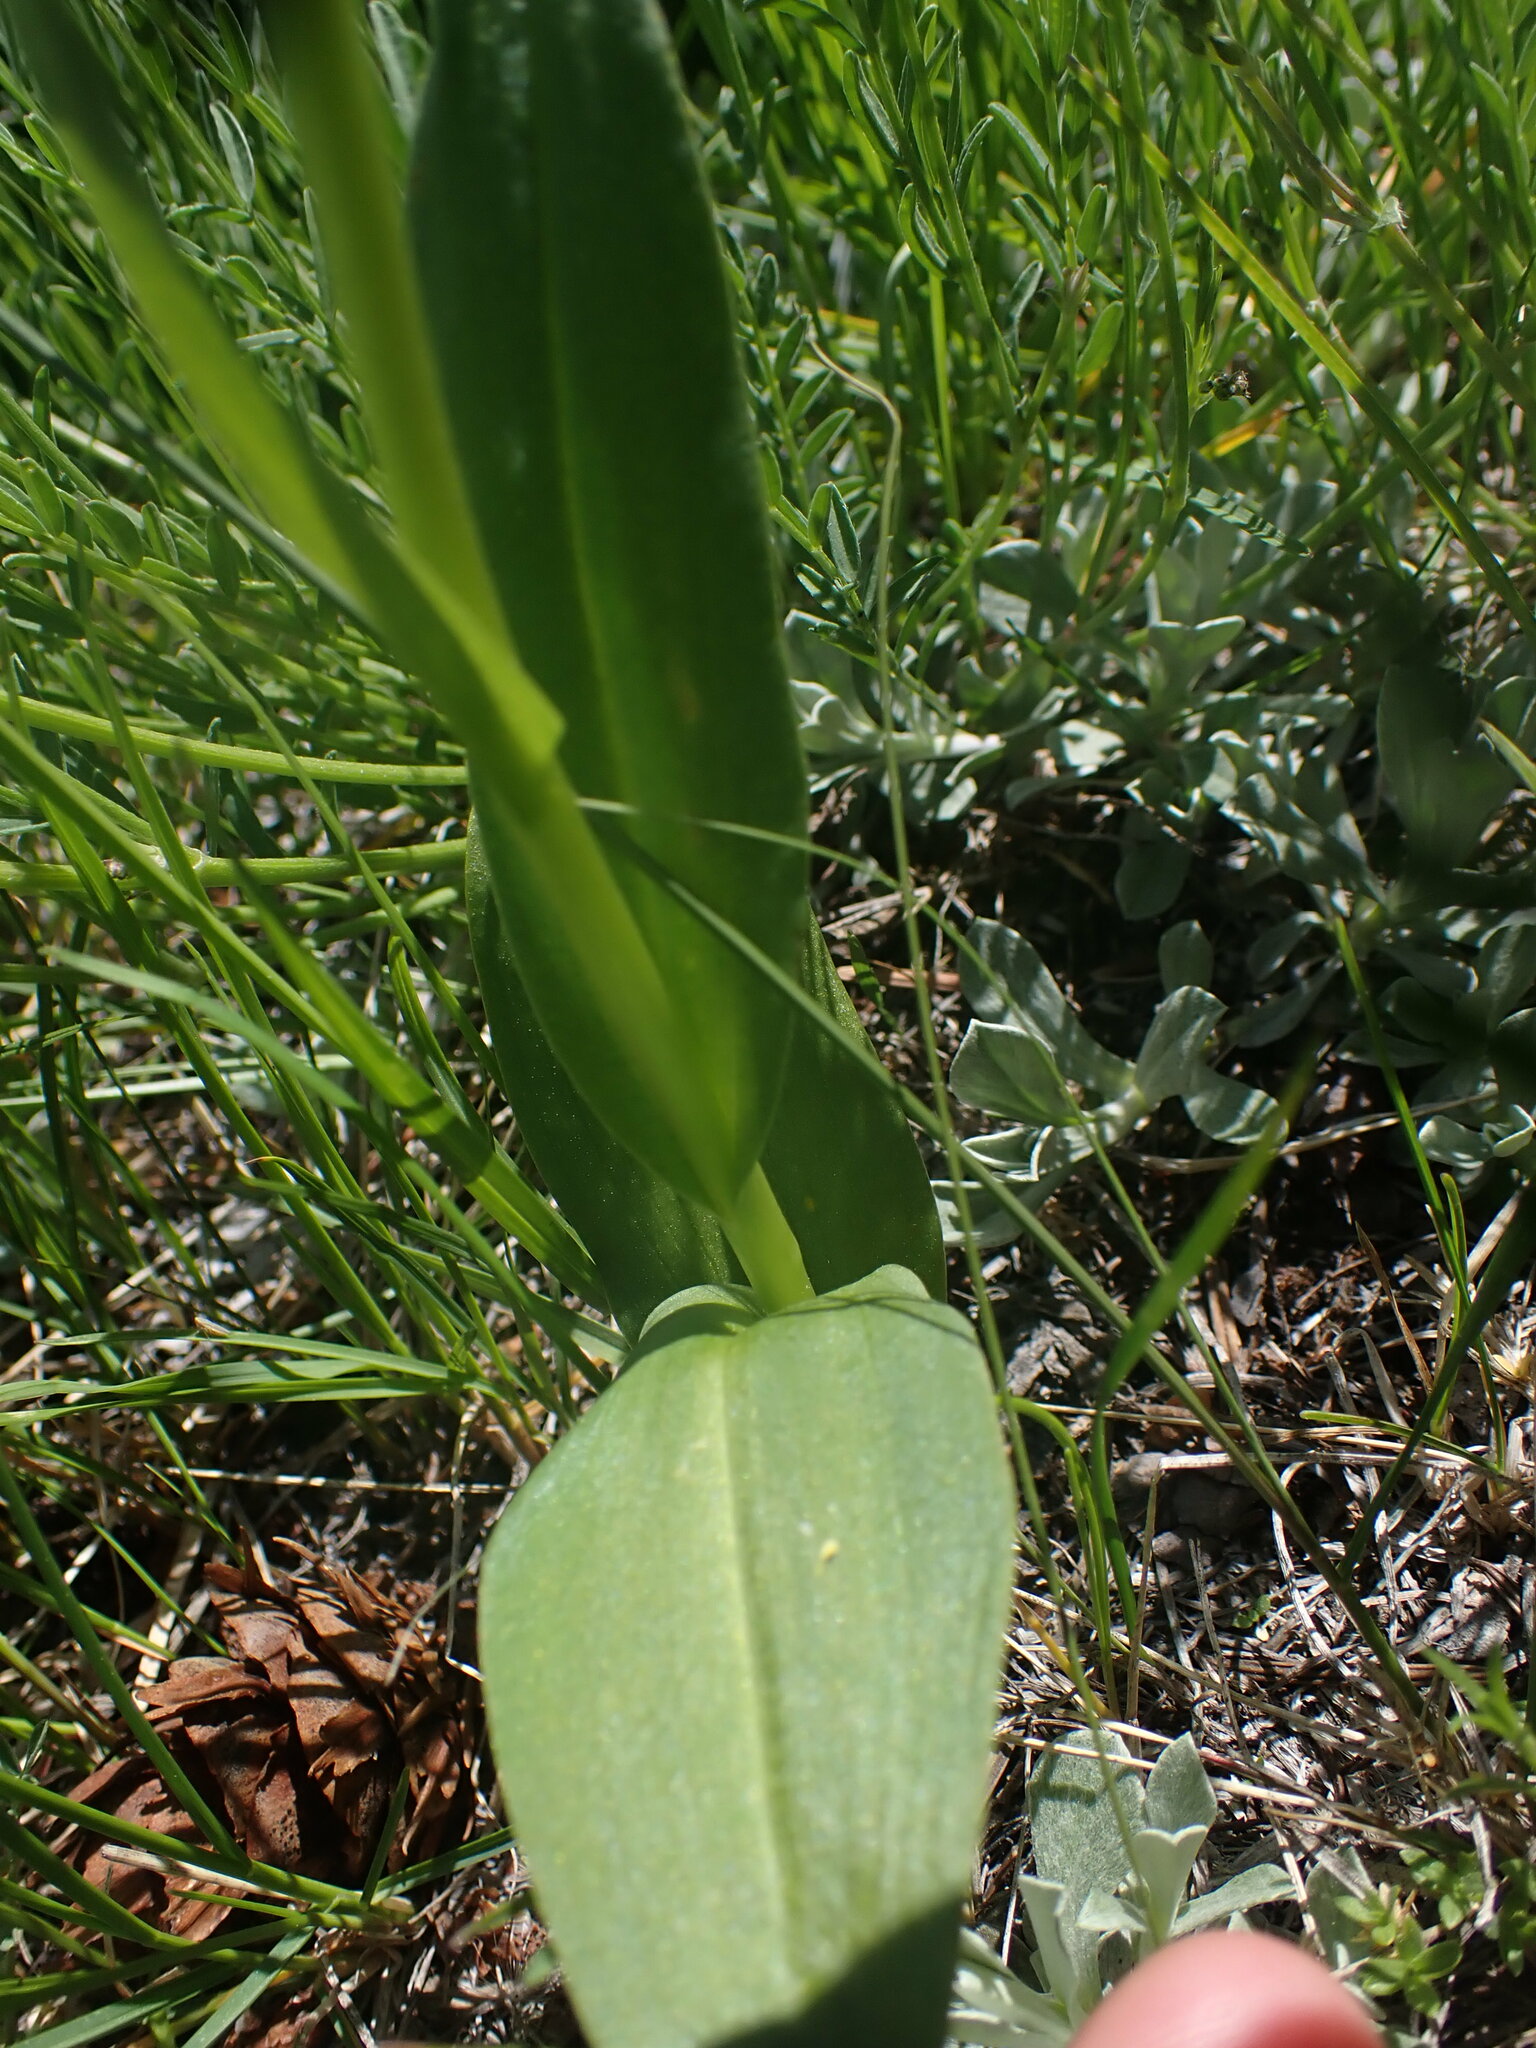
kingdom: Plantae
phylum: Tracheophyta
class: Liliopsida
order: Asparagales
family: Orchidaceae
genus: Dactylorhiza
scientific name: Dactylorhiza viridis
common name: Longbract frog orchid
